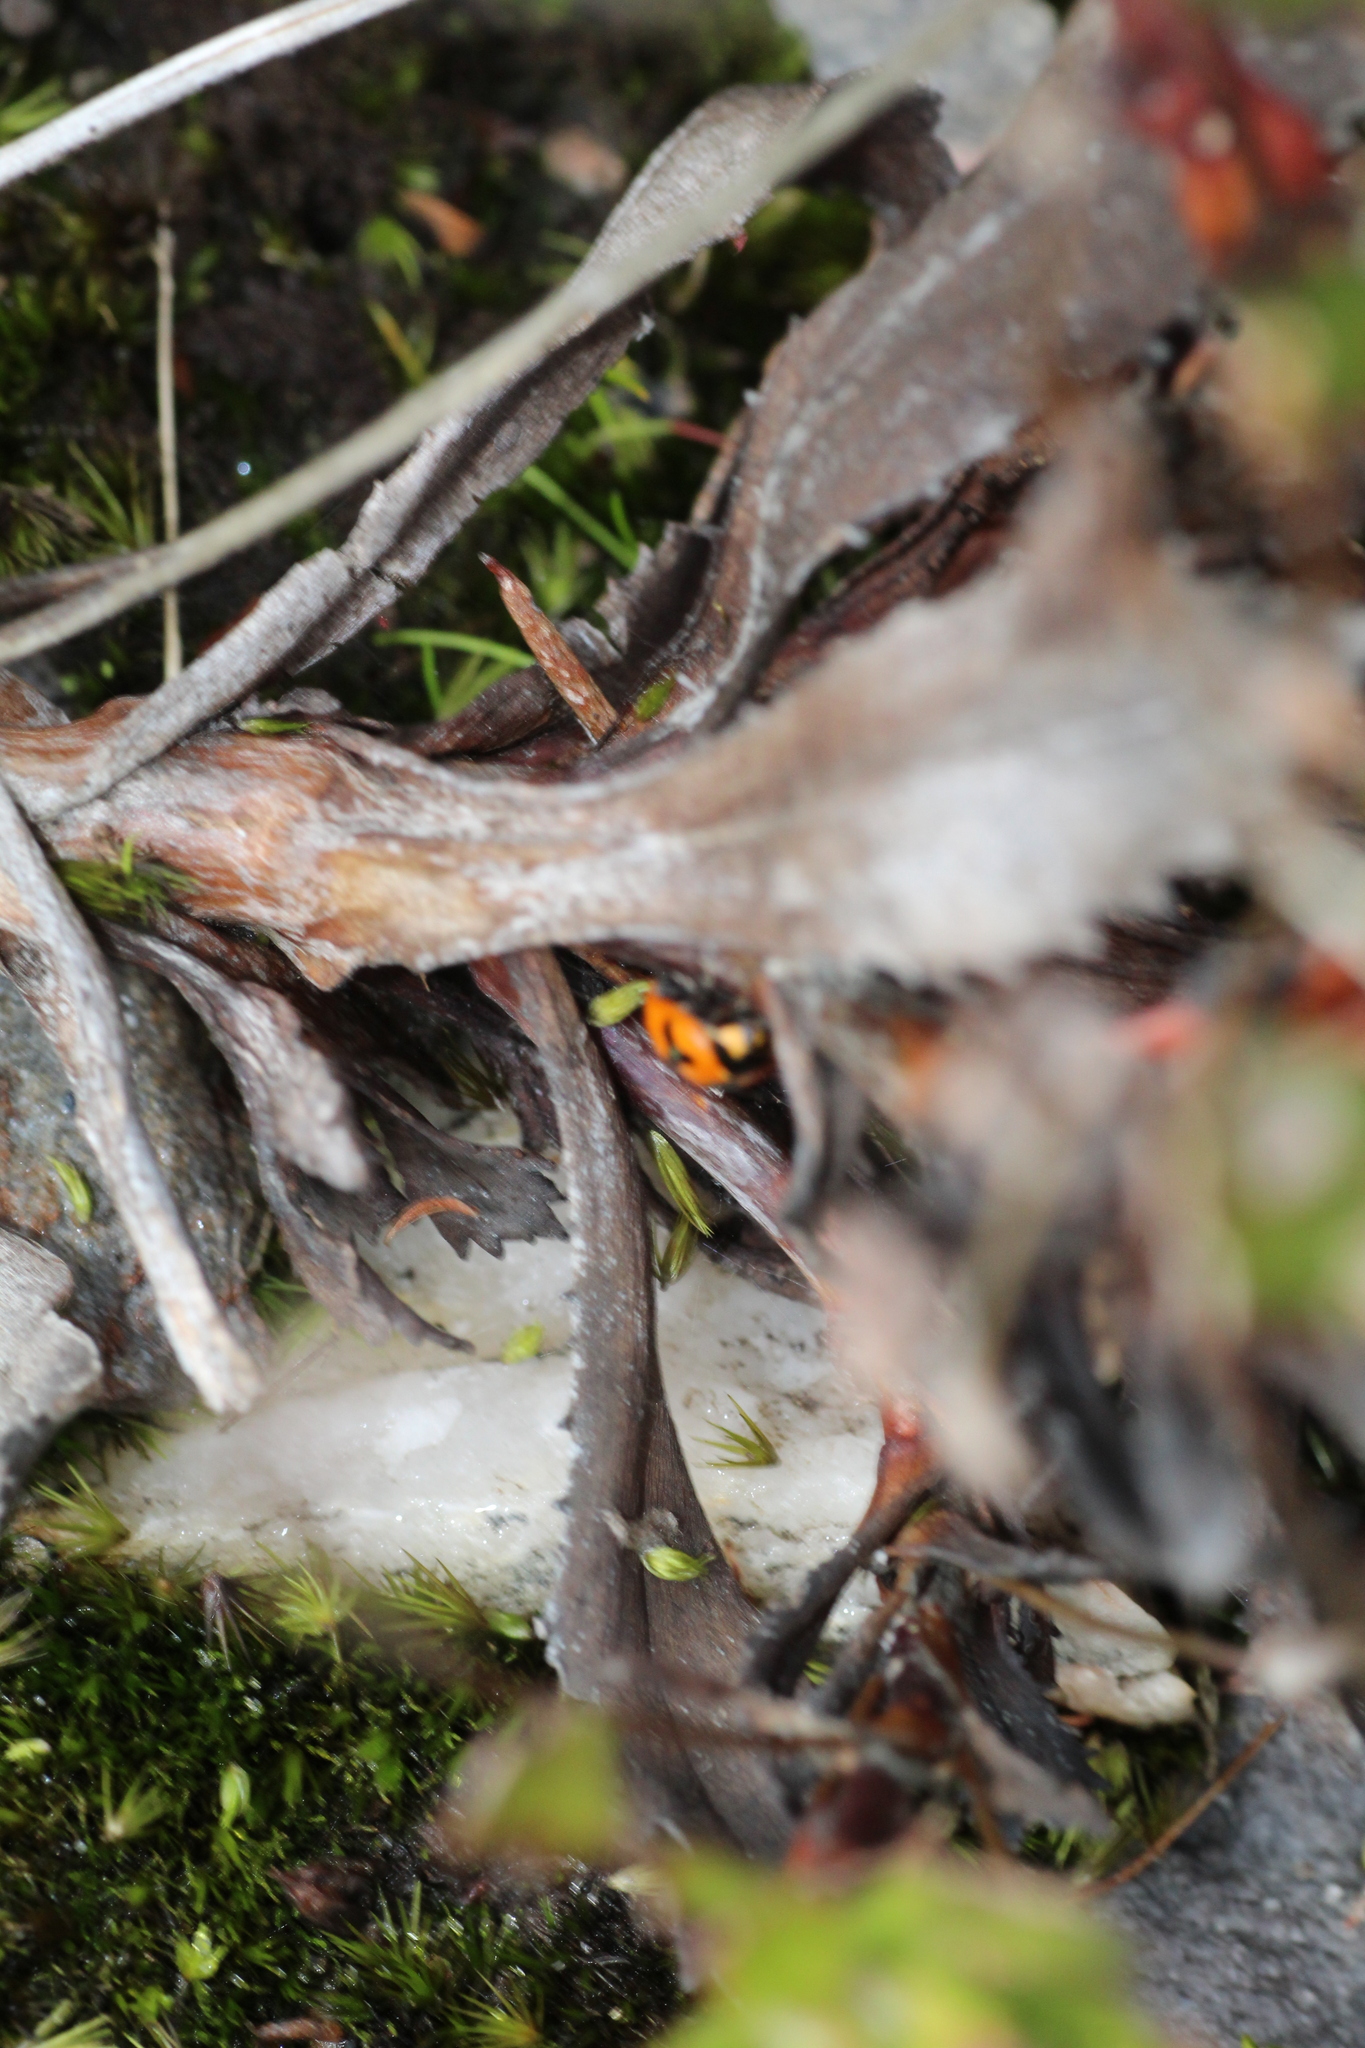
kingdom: Animalia
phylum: Arthropoda
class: Insecta
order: Coleoptera
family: Coccinellidae
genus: Coccinella
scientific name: Coccinella transversalis
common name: Transverse lady beetle
